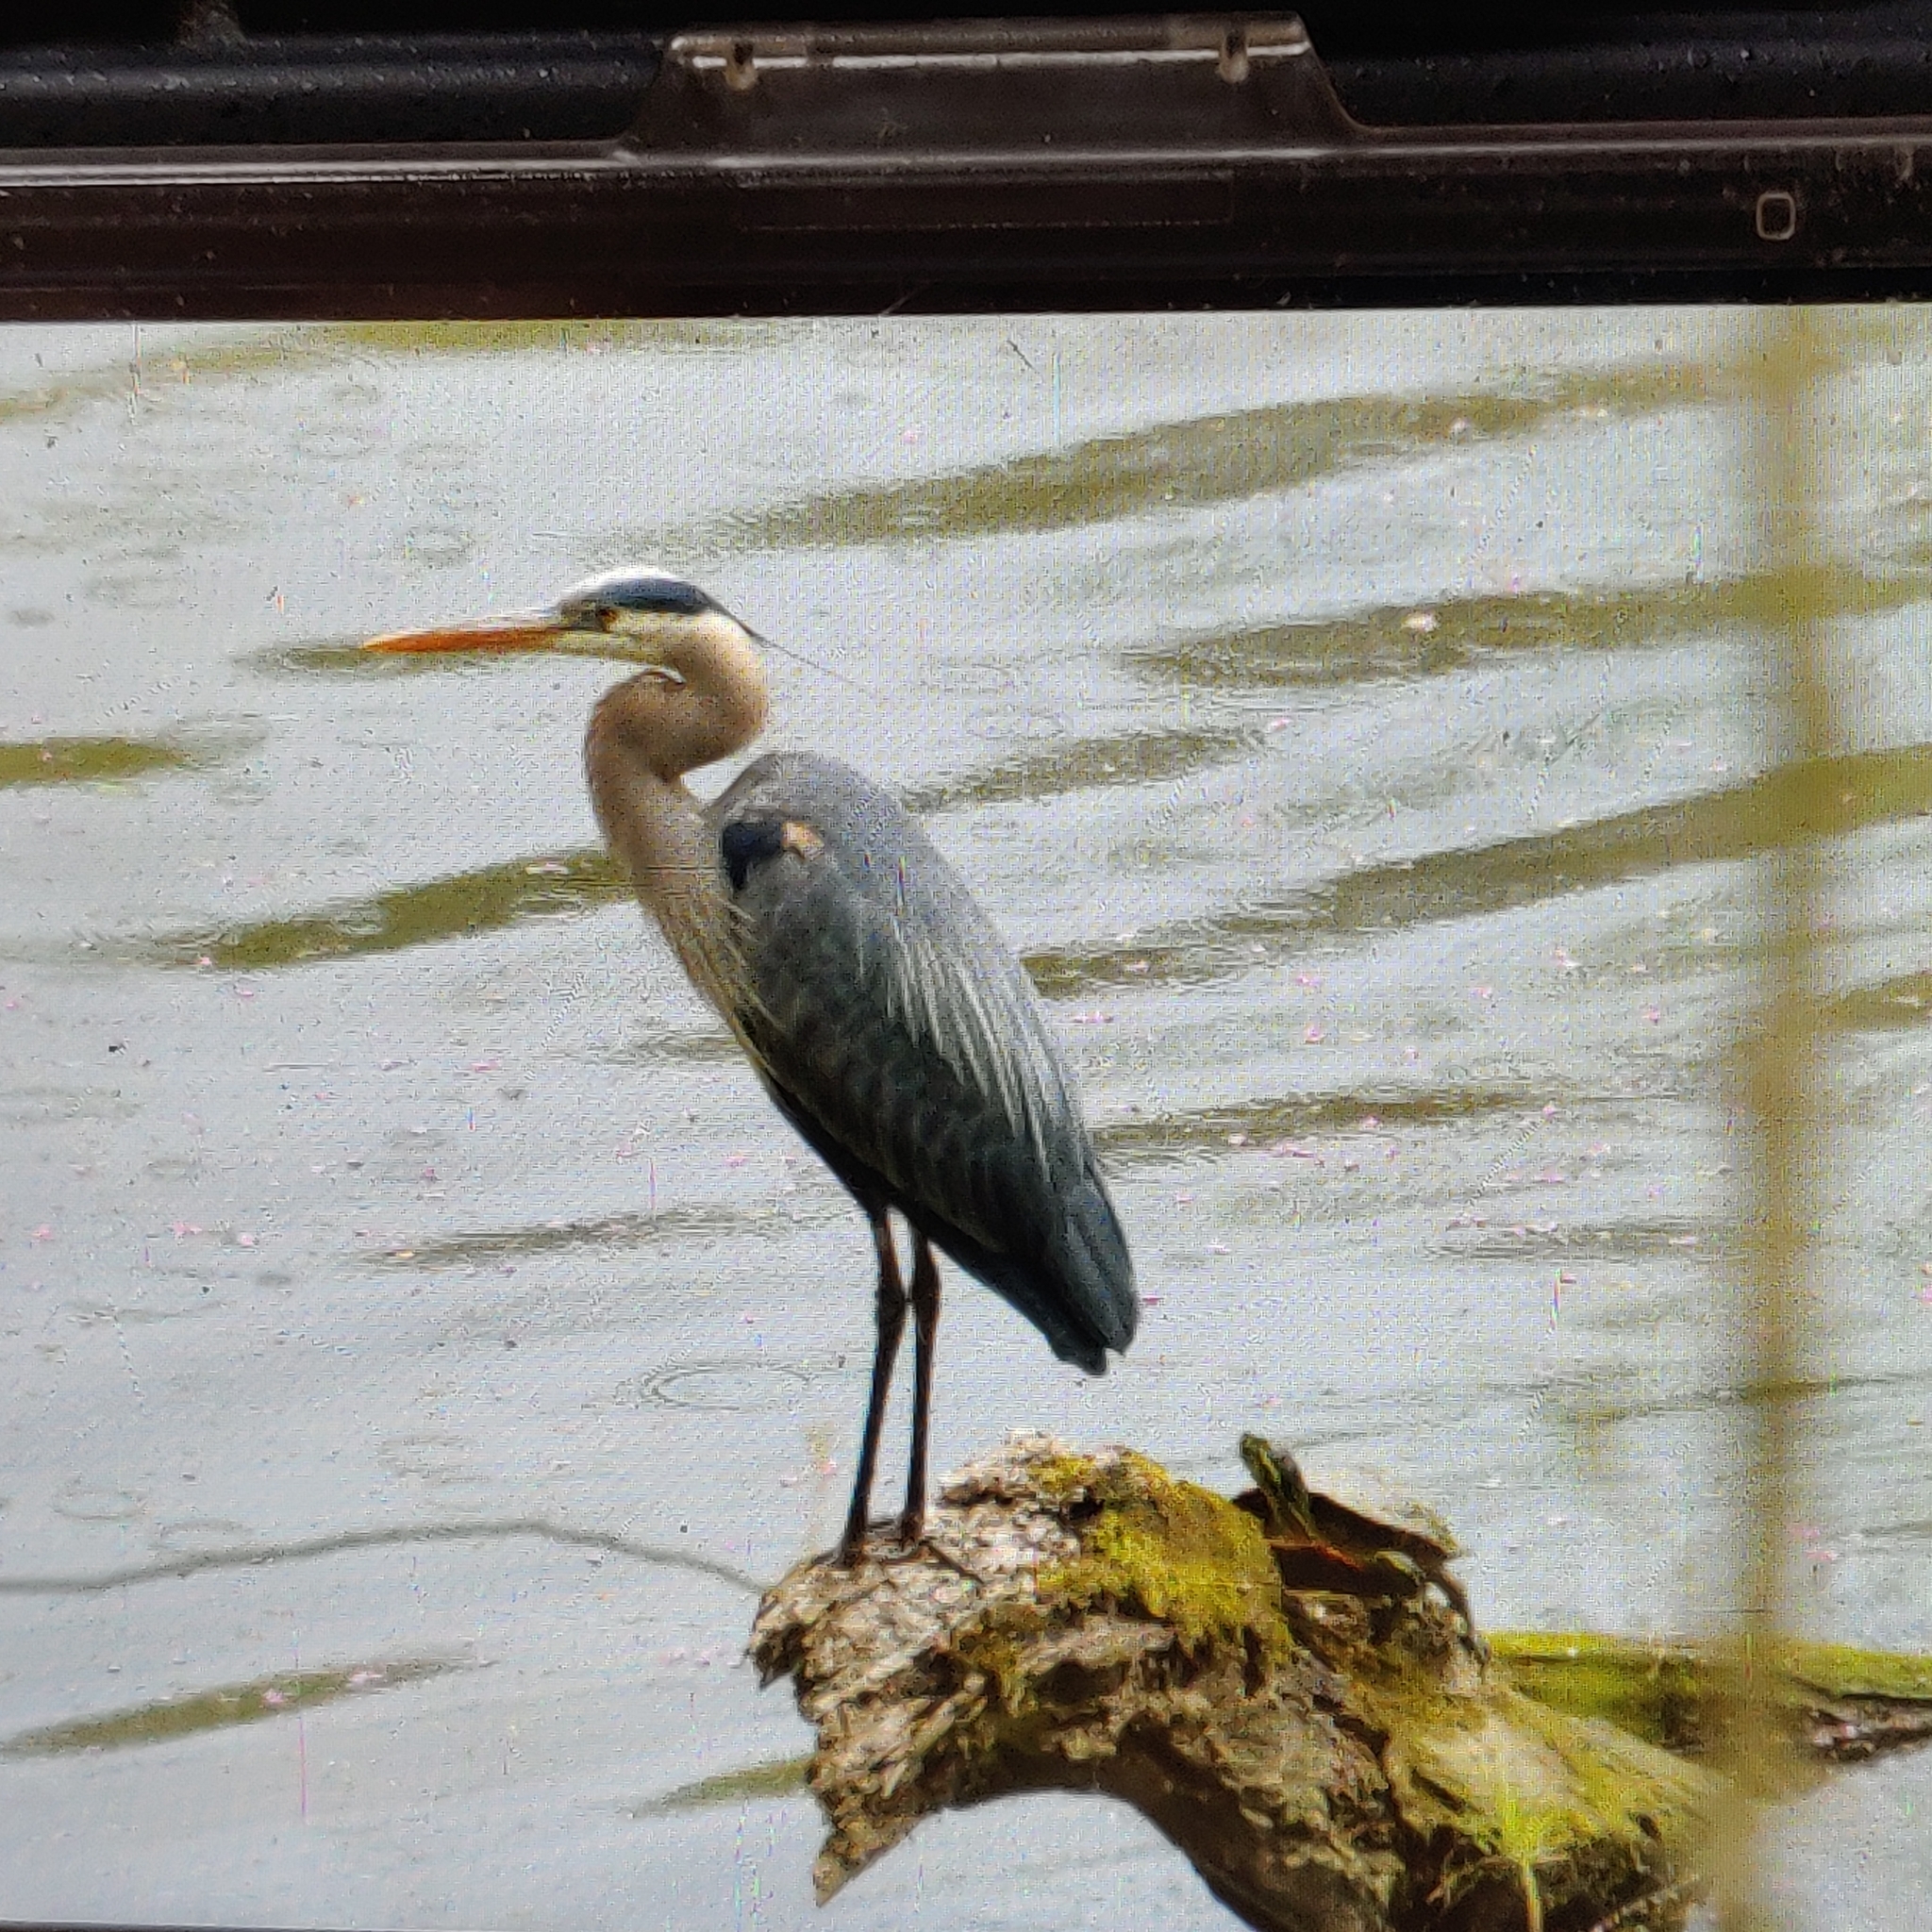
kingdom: Animalia
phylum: Chordata
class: Aves
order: Pelecaniformes
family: Ardeidae
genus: Ardea
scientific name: Ardea herodias
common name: Great blue heron
